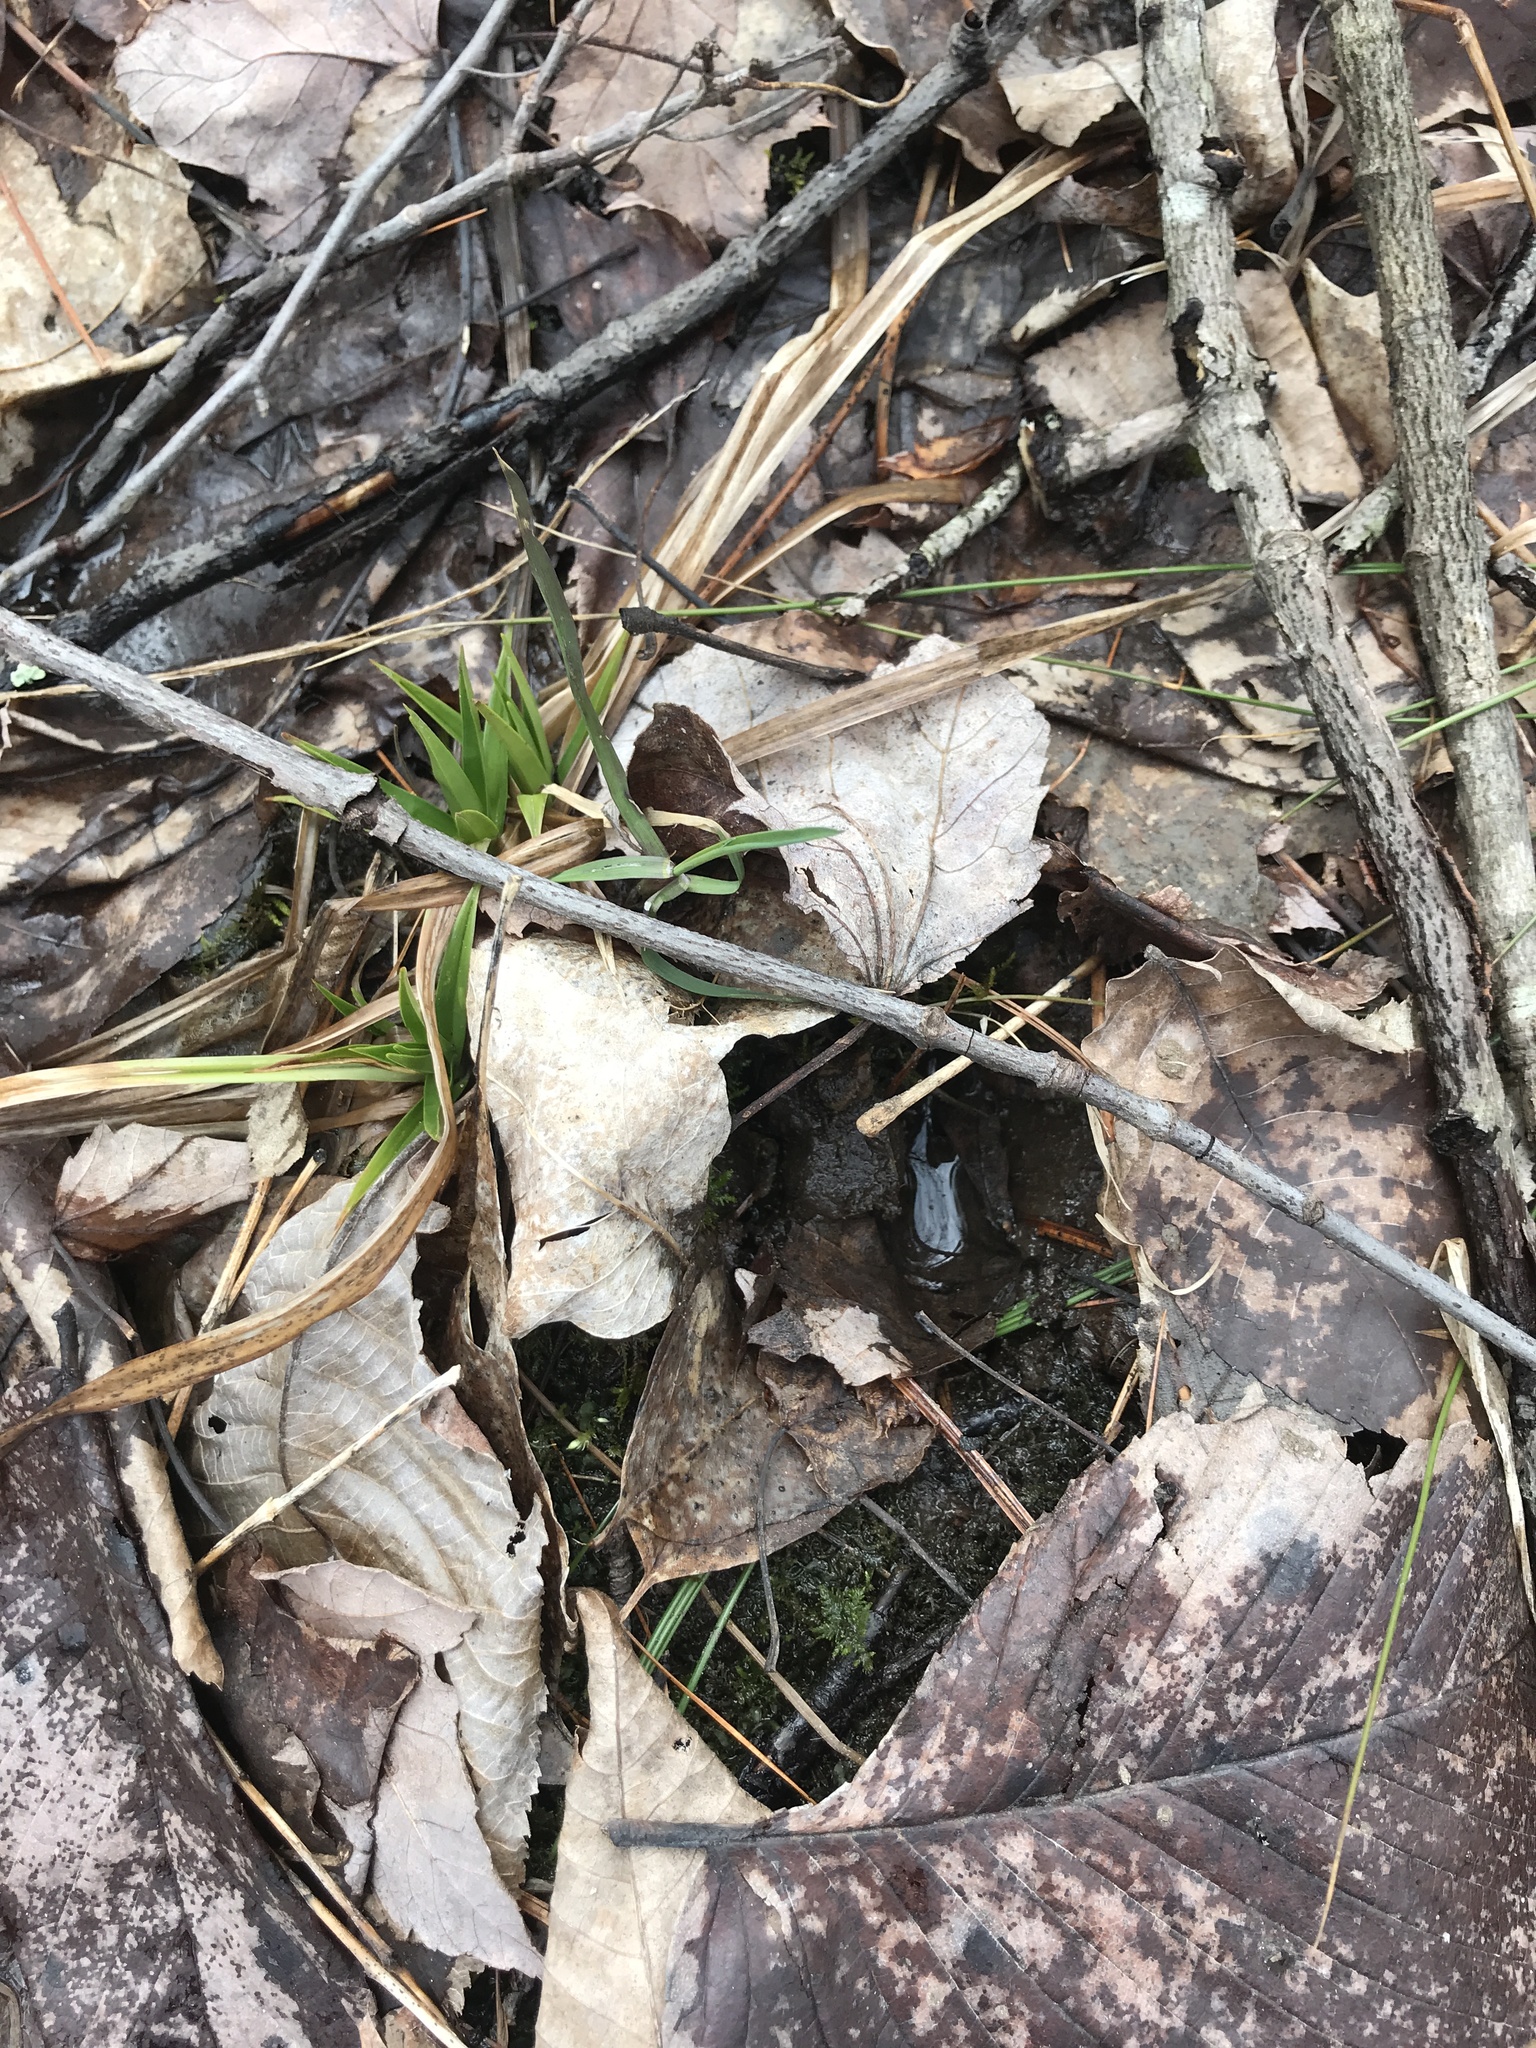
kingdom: Animalia
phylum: Chordata
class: Mammalia
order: Artiodactyla
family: Cervidae
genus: Odocoileus
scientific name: Odocoileus virginianus
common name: White-tailed deer
